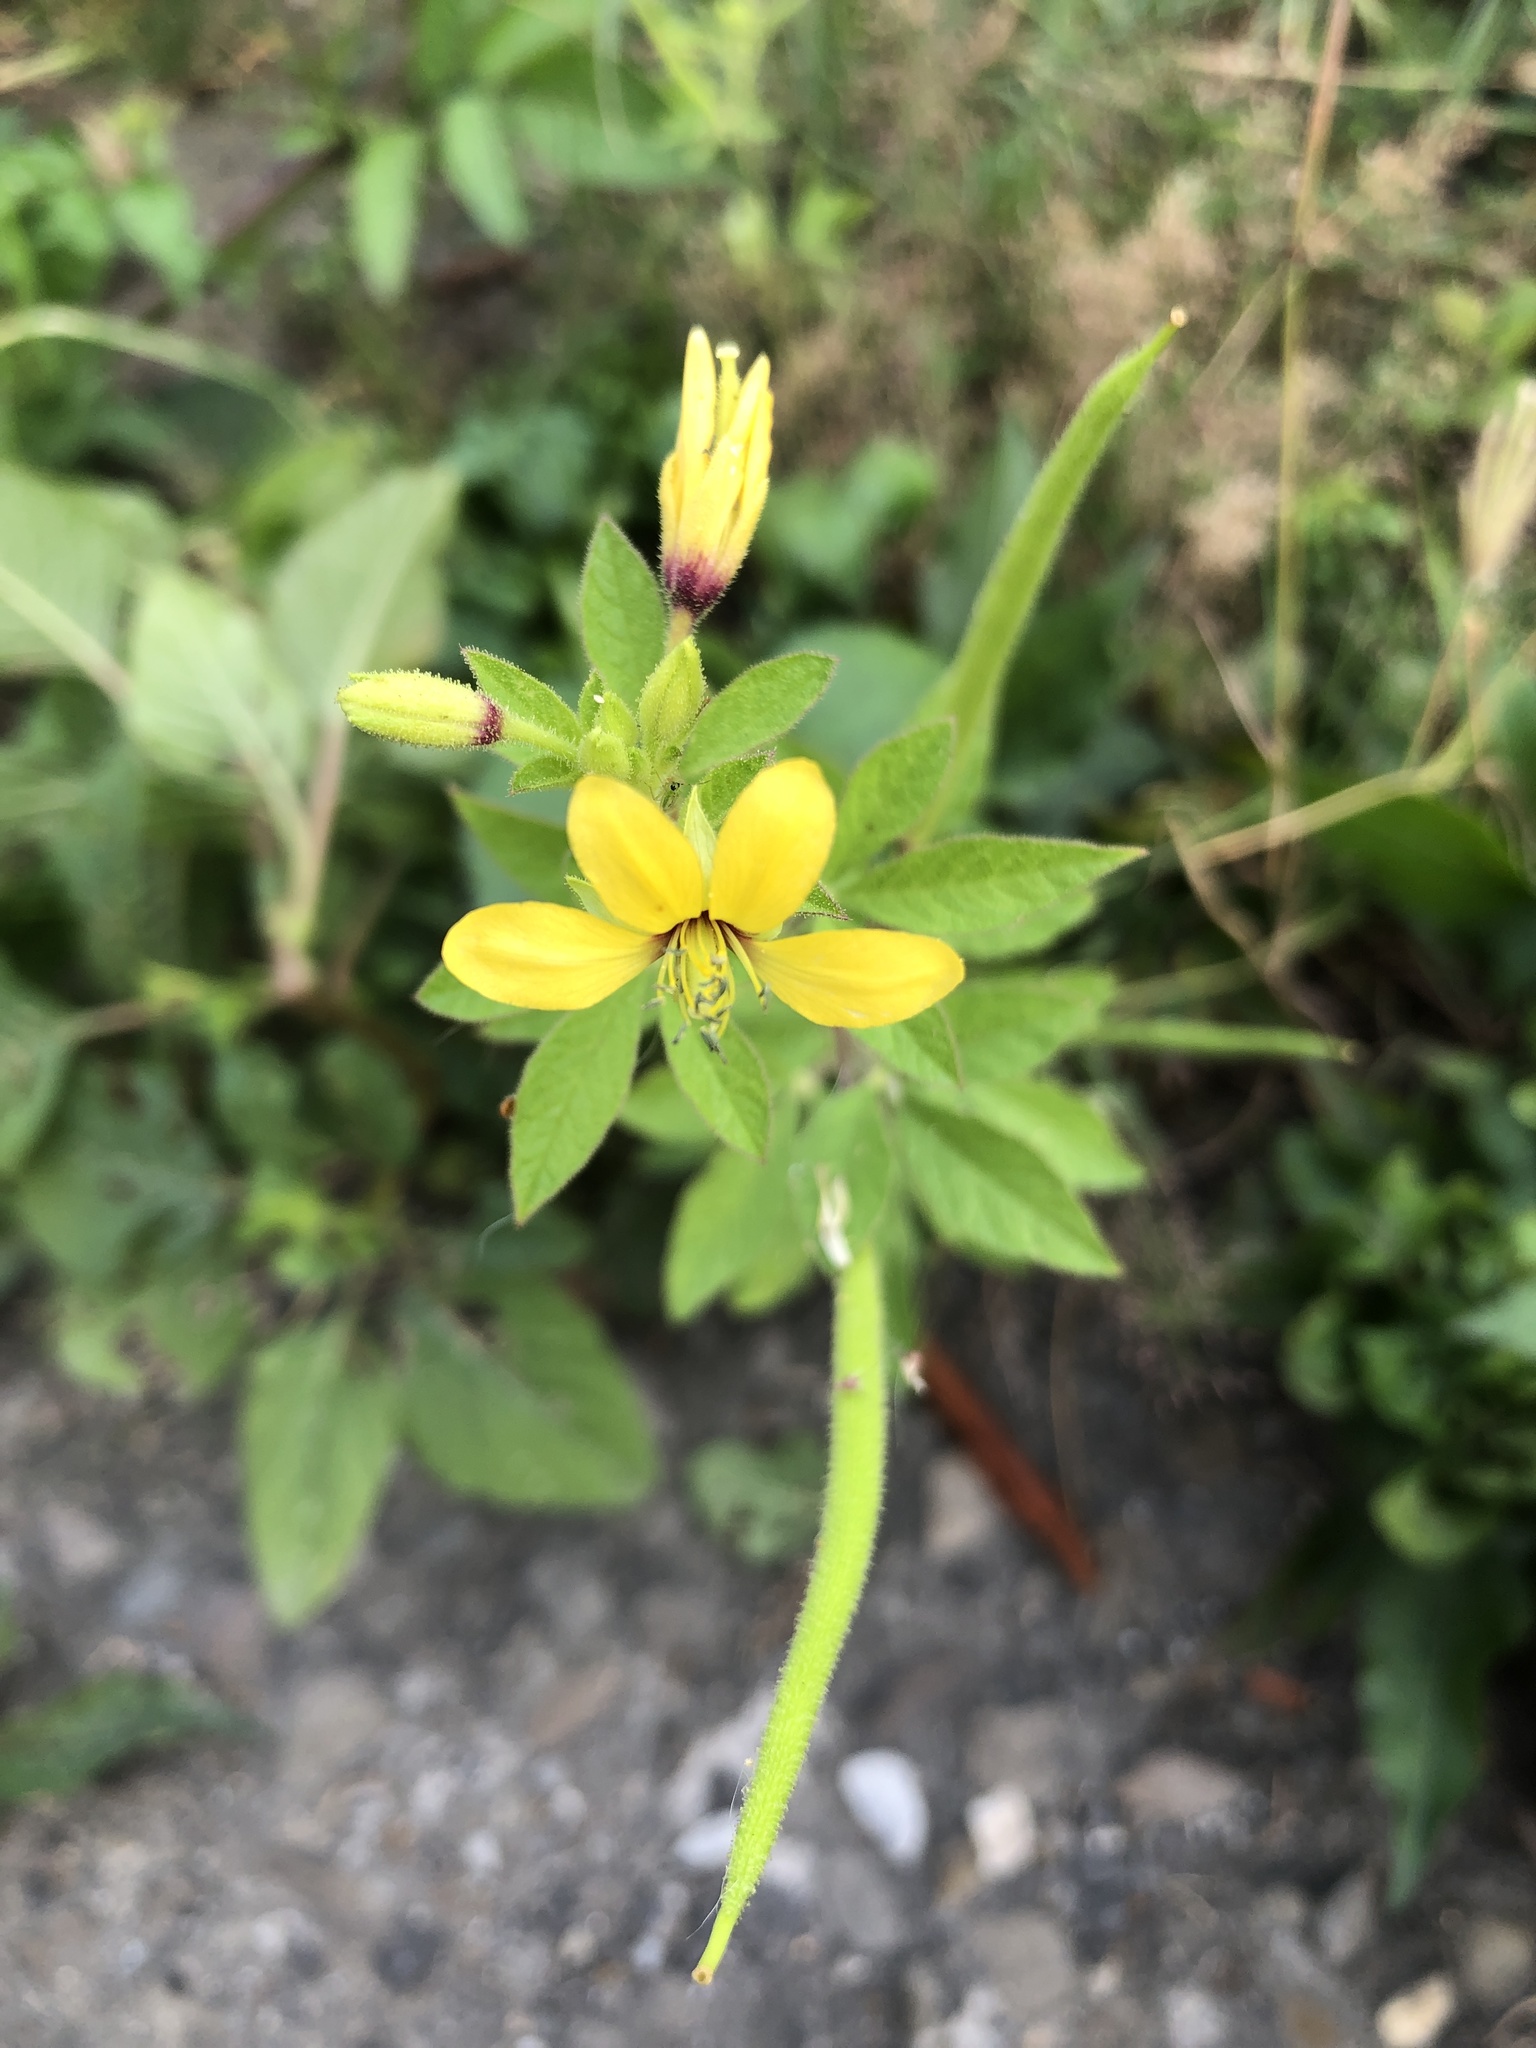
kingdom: Plantae
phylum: Tracheophyta
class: Magnoliopsida
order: Brassicales
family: Cleomaceae
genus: Arivela
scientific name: Arivela viscosa
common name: Asian spiderflower
